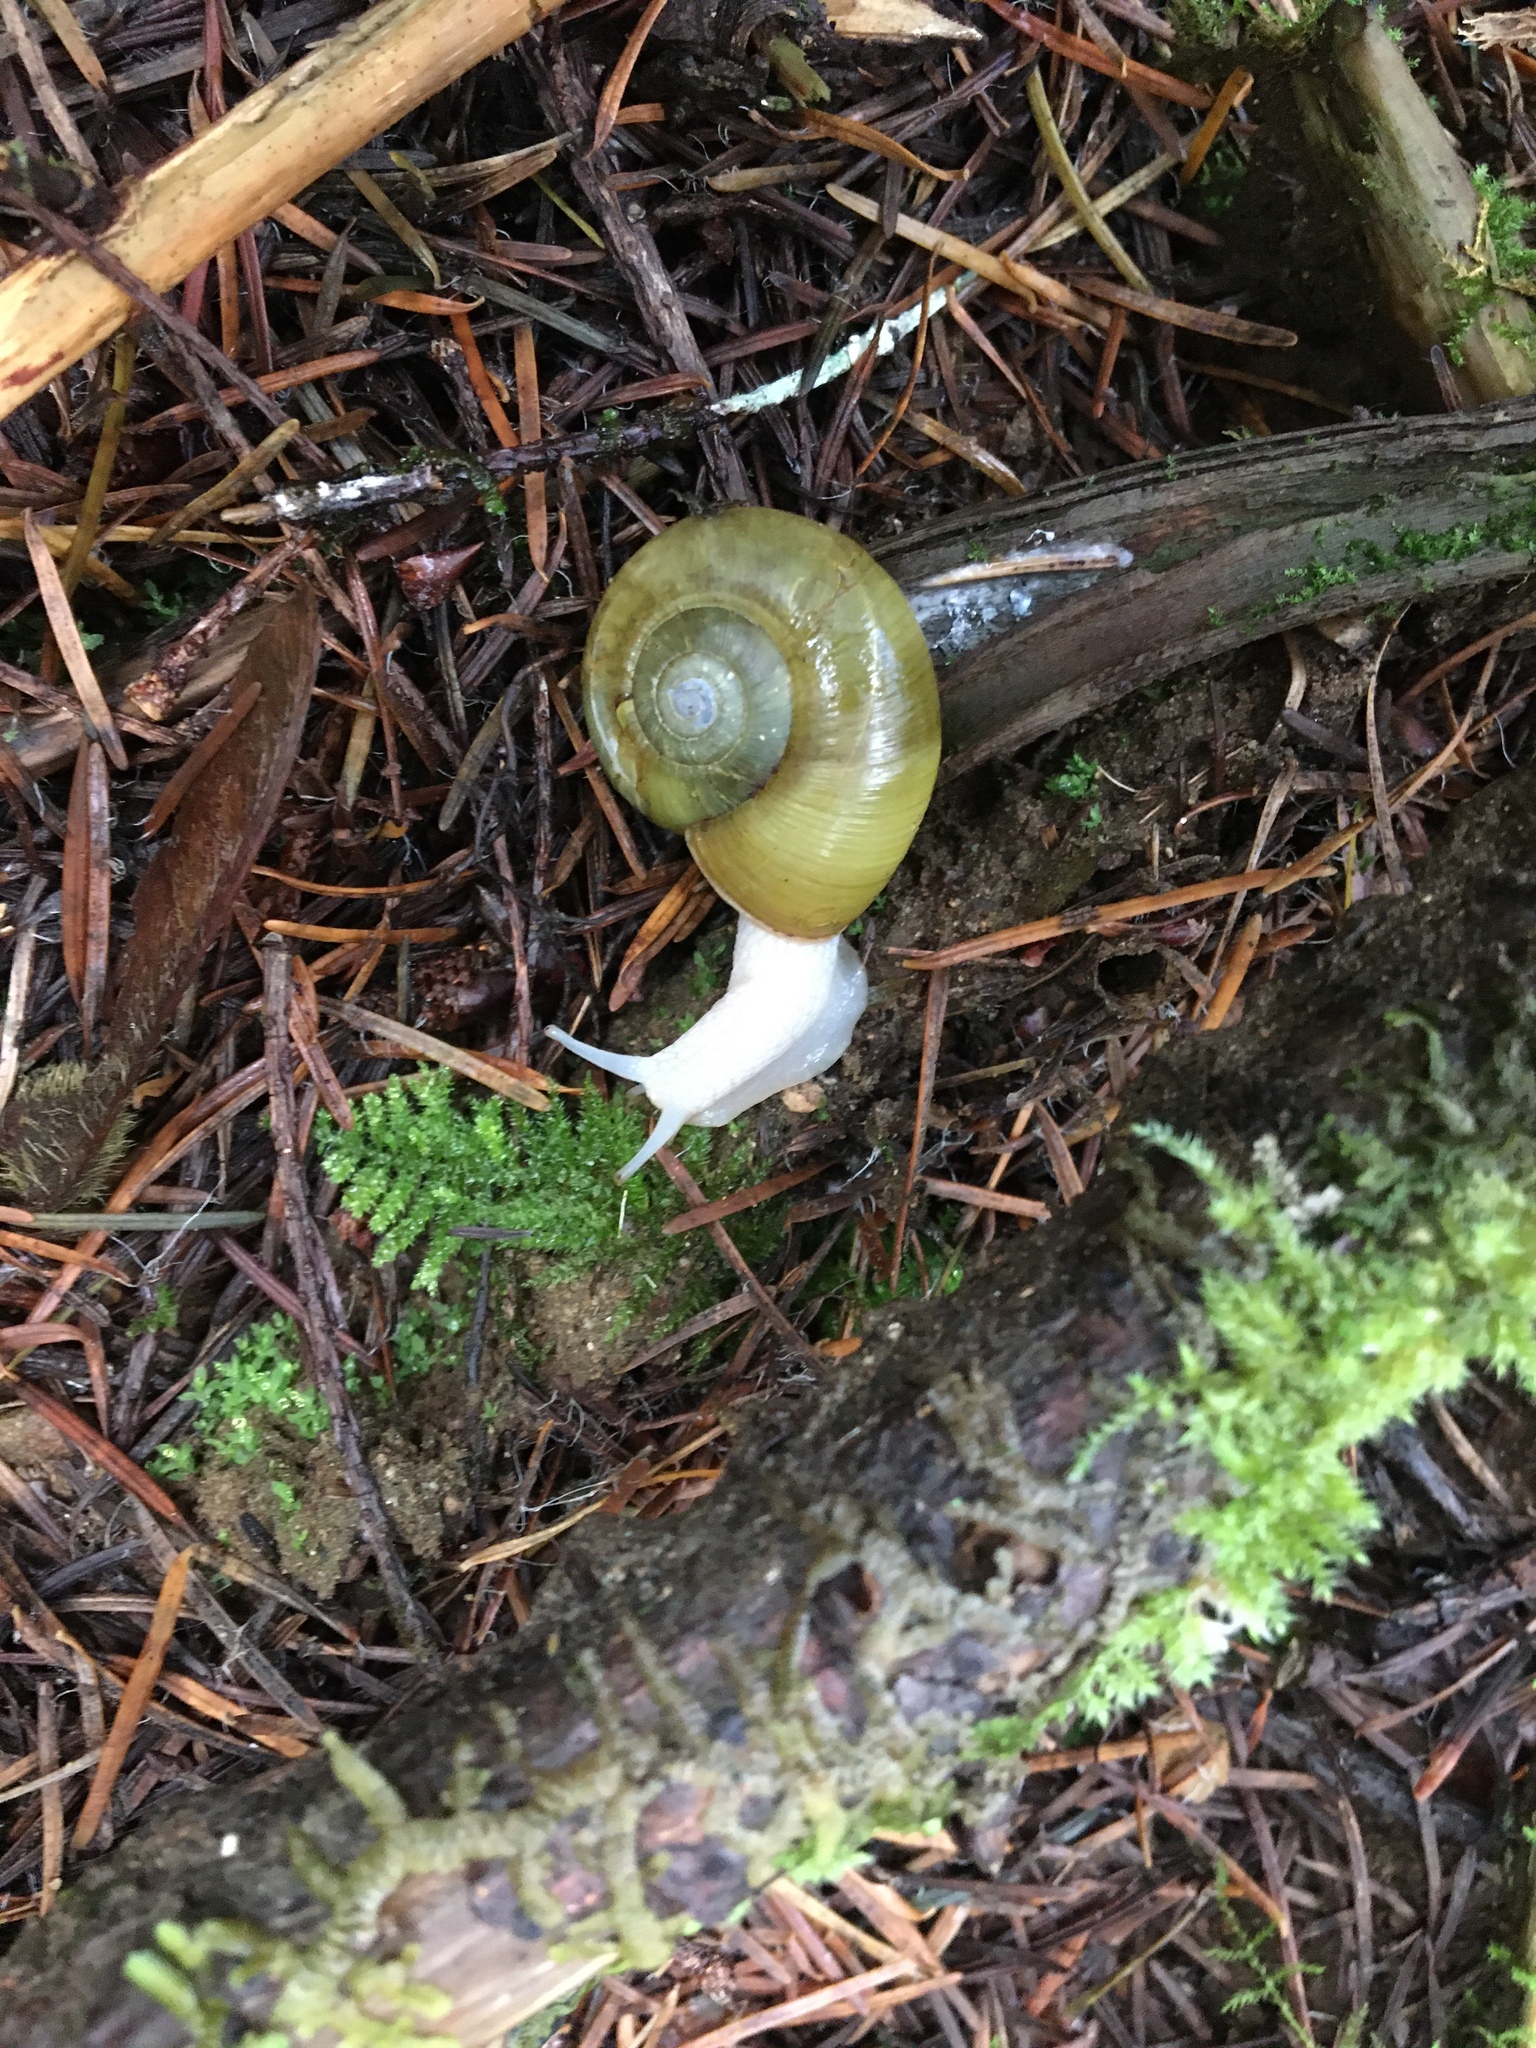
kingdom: Animalia
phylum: Mollusca
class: Gastropoda
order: Stylommatophora
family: Haplotrematidae
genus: Haplotrema
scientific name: Haplotrema vancouverense
